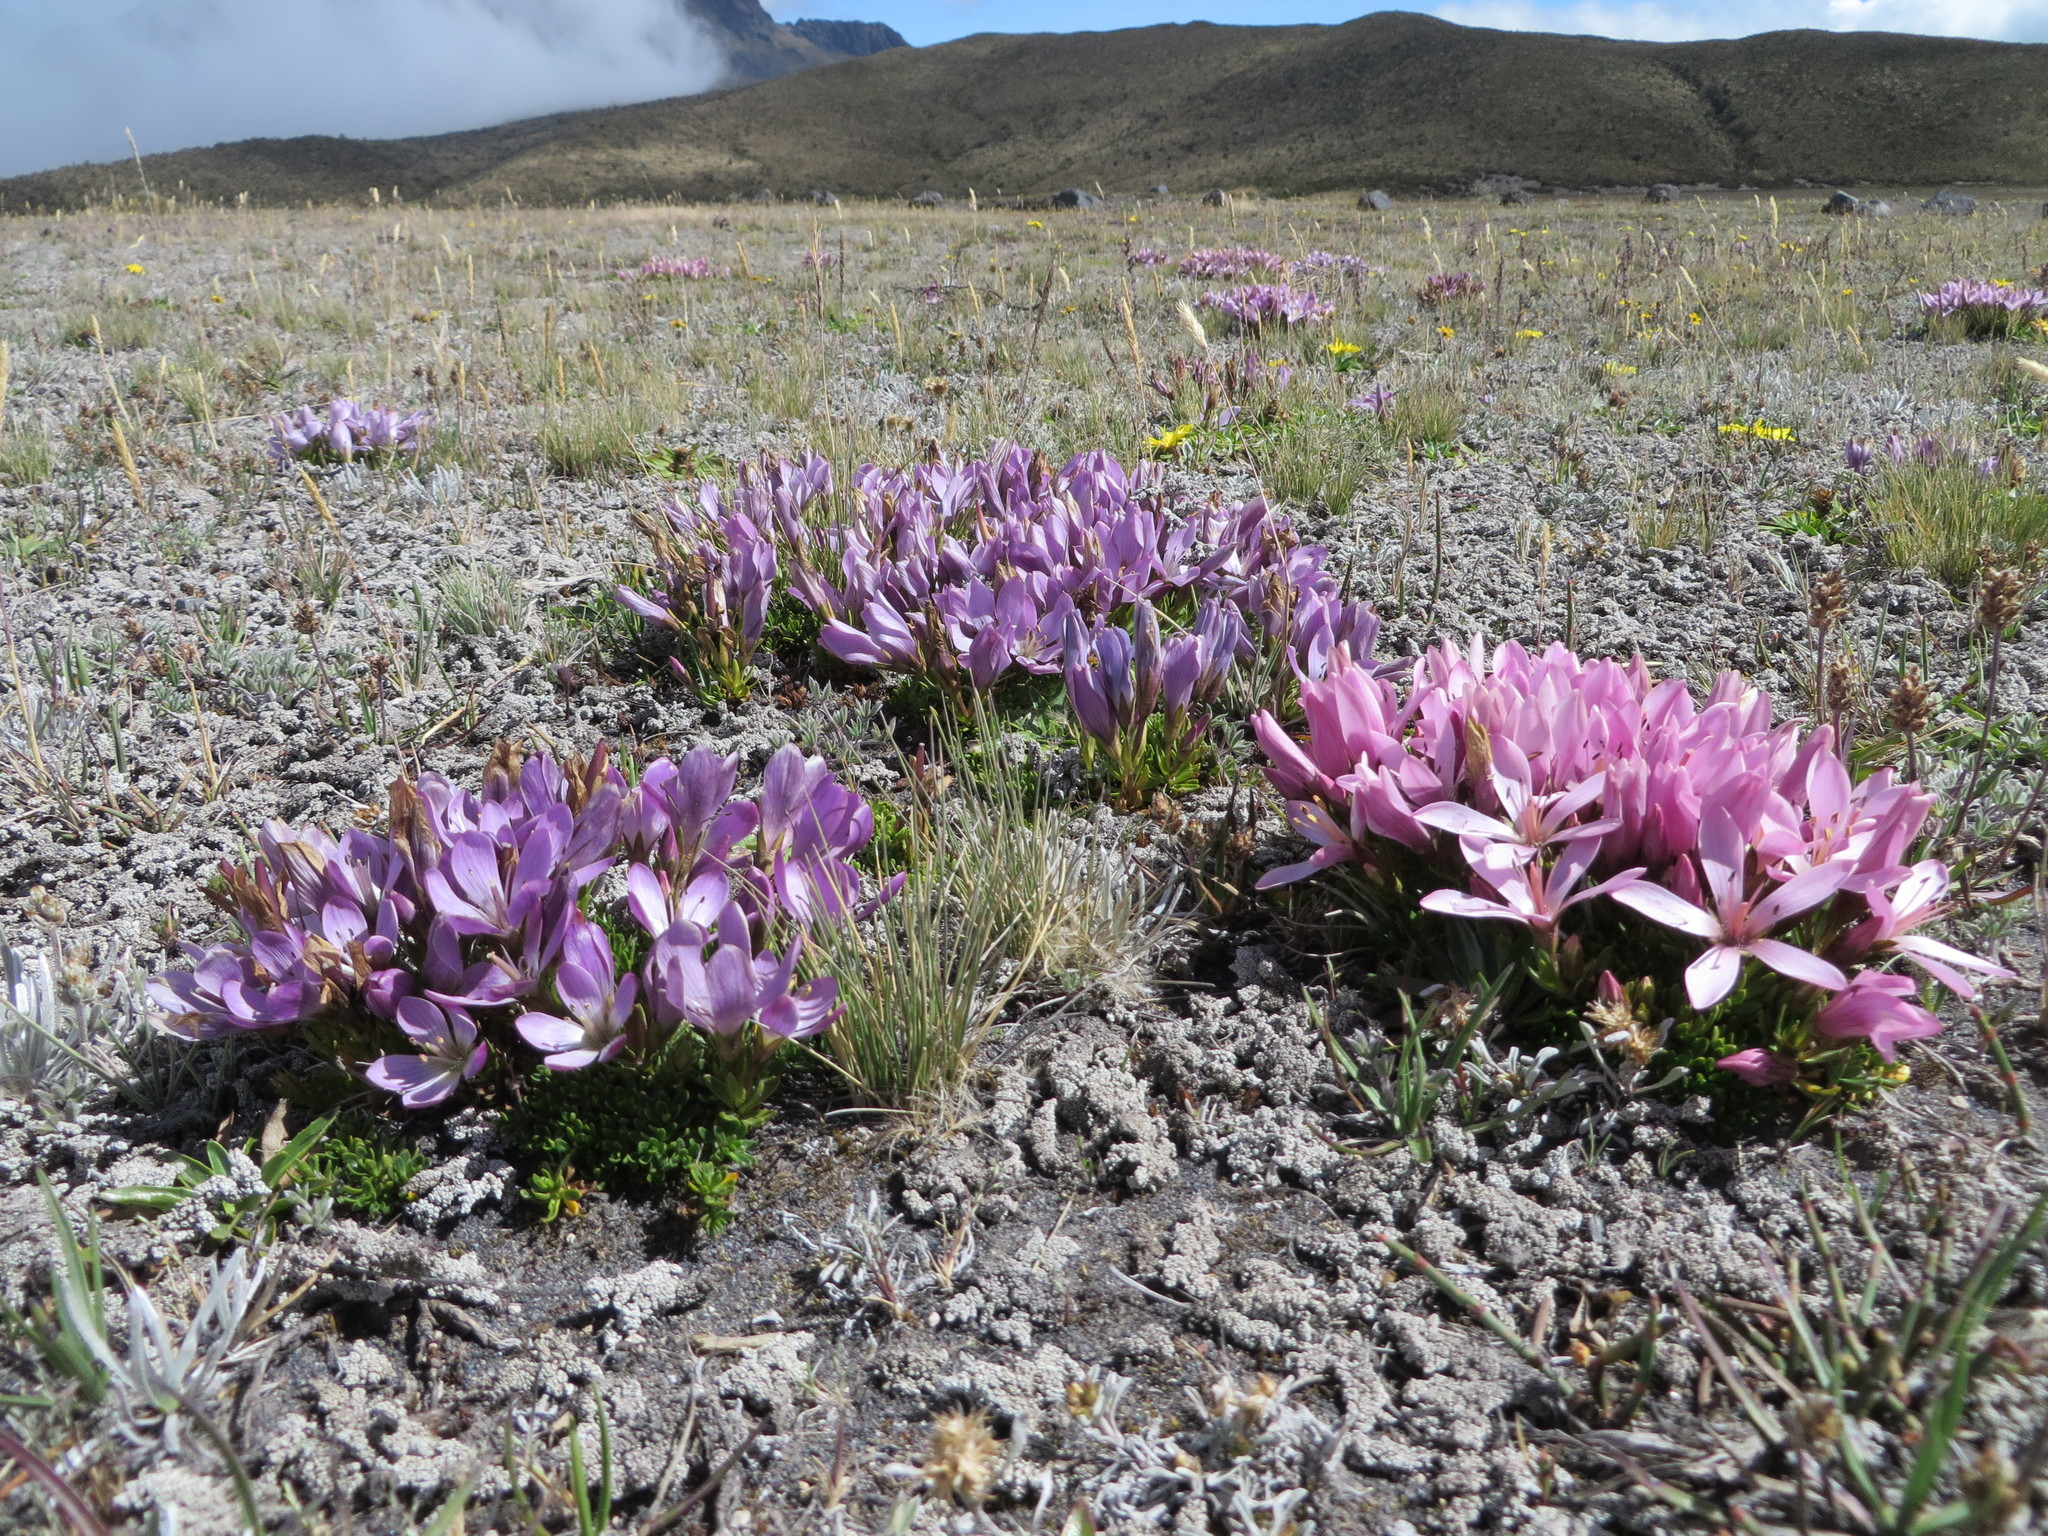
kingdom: Plantae
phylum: Tracheophyta
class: Magnoliopsida
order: Gentianales
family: Gentianaceae
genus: Gentianella
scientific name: Gentianella cerastioides
